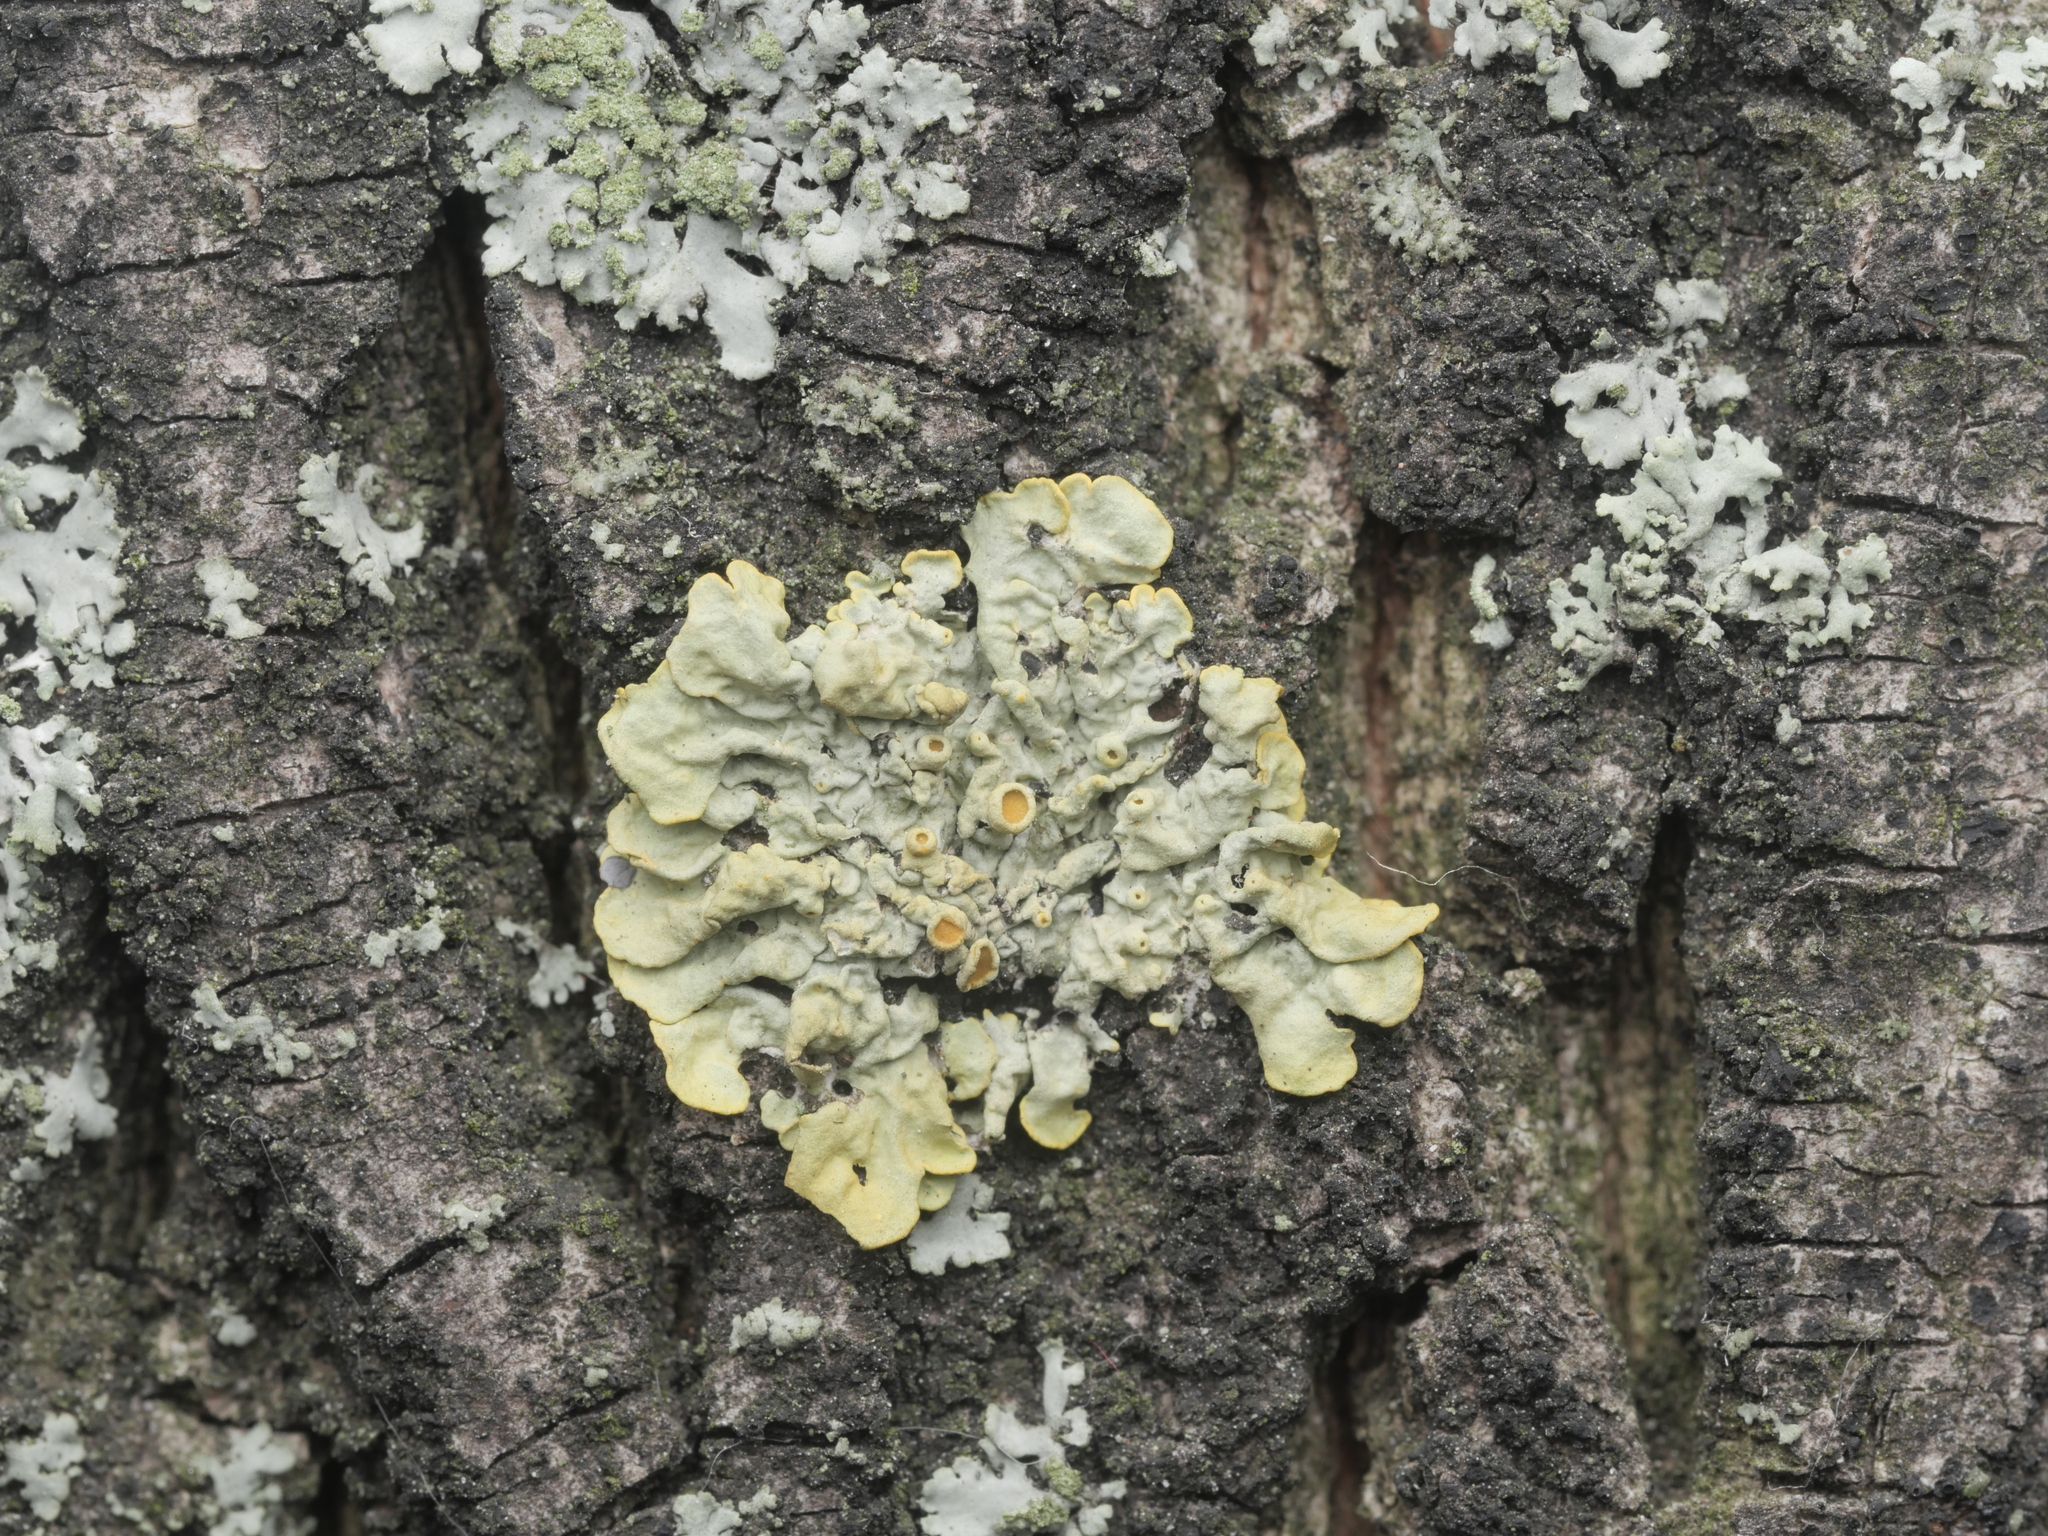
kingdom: Fungi
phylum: Ascomycota
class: Lecanoromycetes
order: Teloschistales
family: Teloschistaceae
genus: Xanthoria
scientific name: Xanthoria parietina
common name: Common orange lichen
